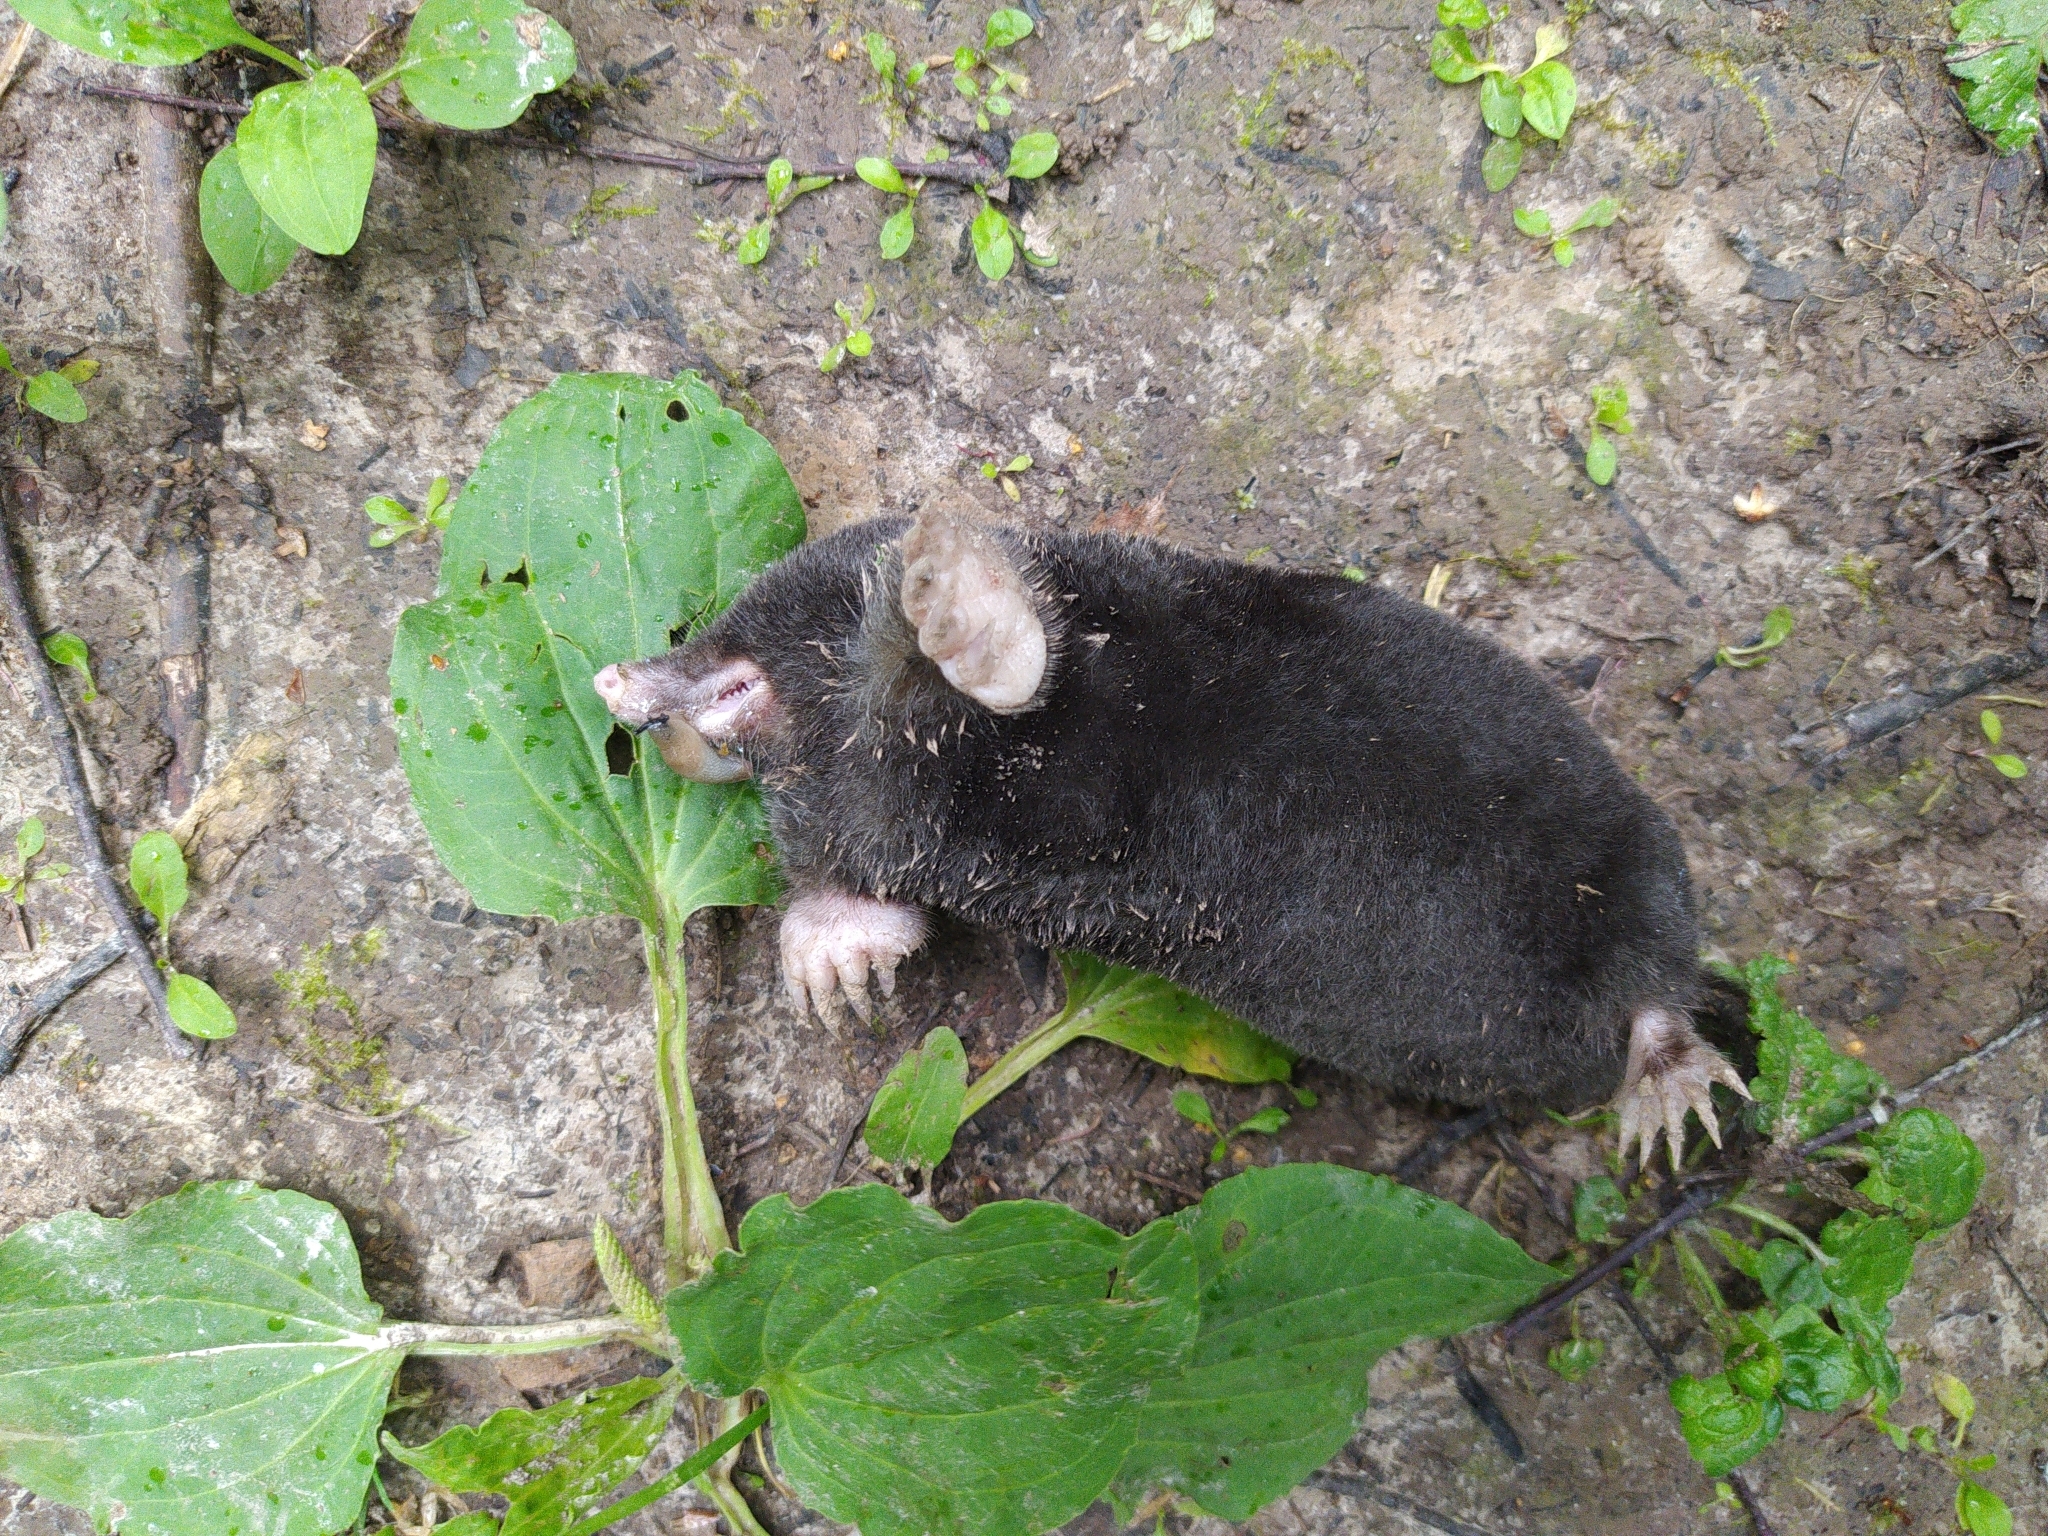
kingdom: Animalia
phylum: Chordata
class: Mammalia
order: Soricomorpha
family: Talpidae
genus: Talpa
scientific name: Talpa europaea
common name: European mole
